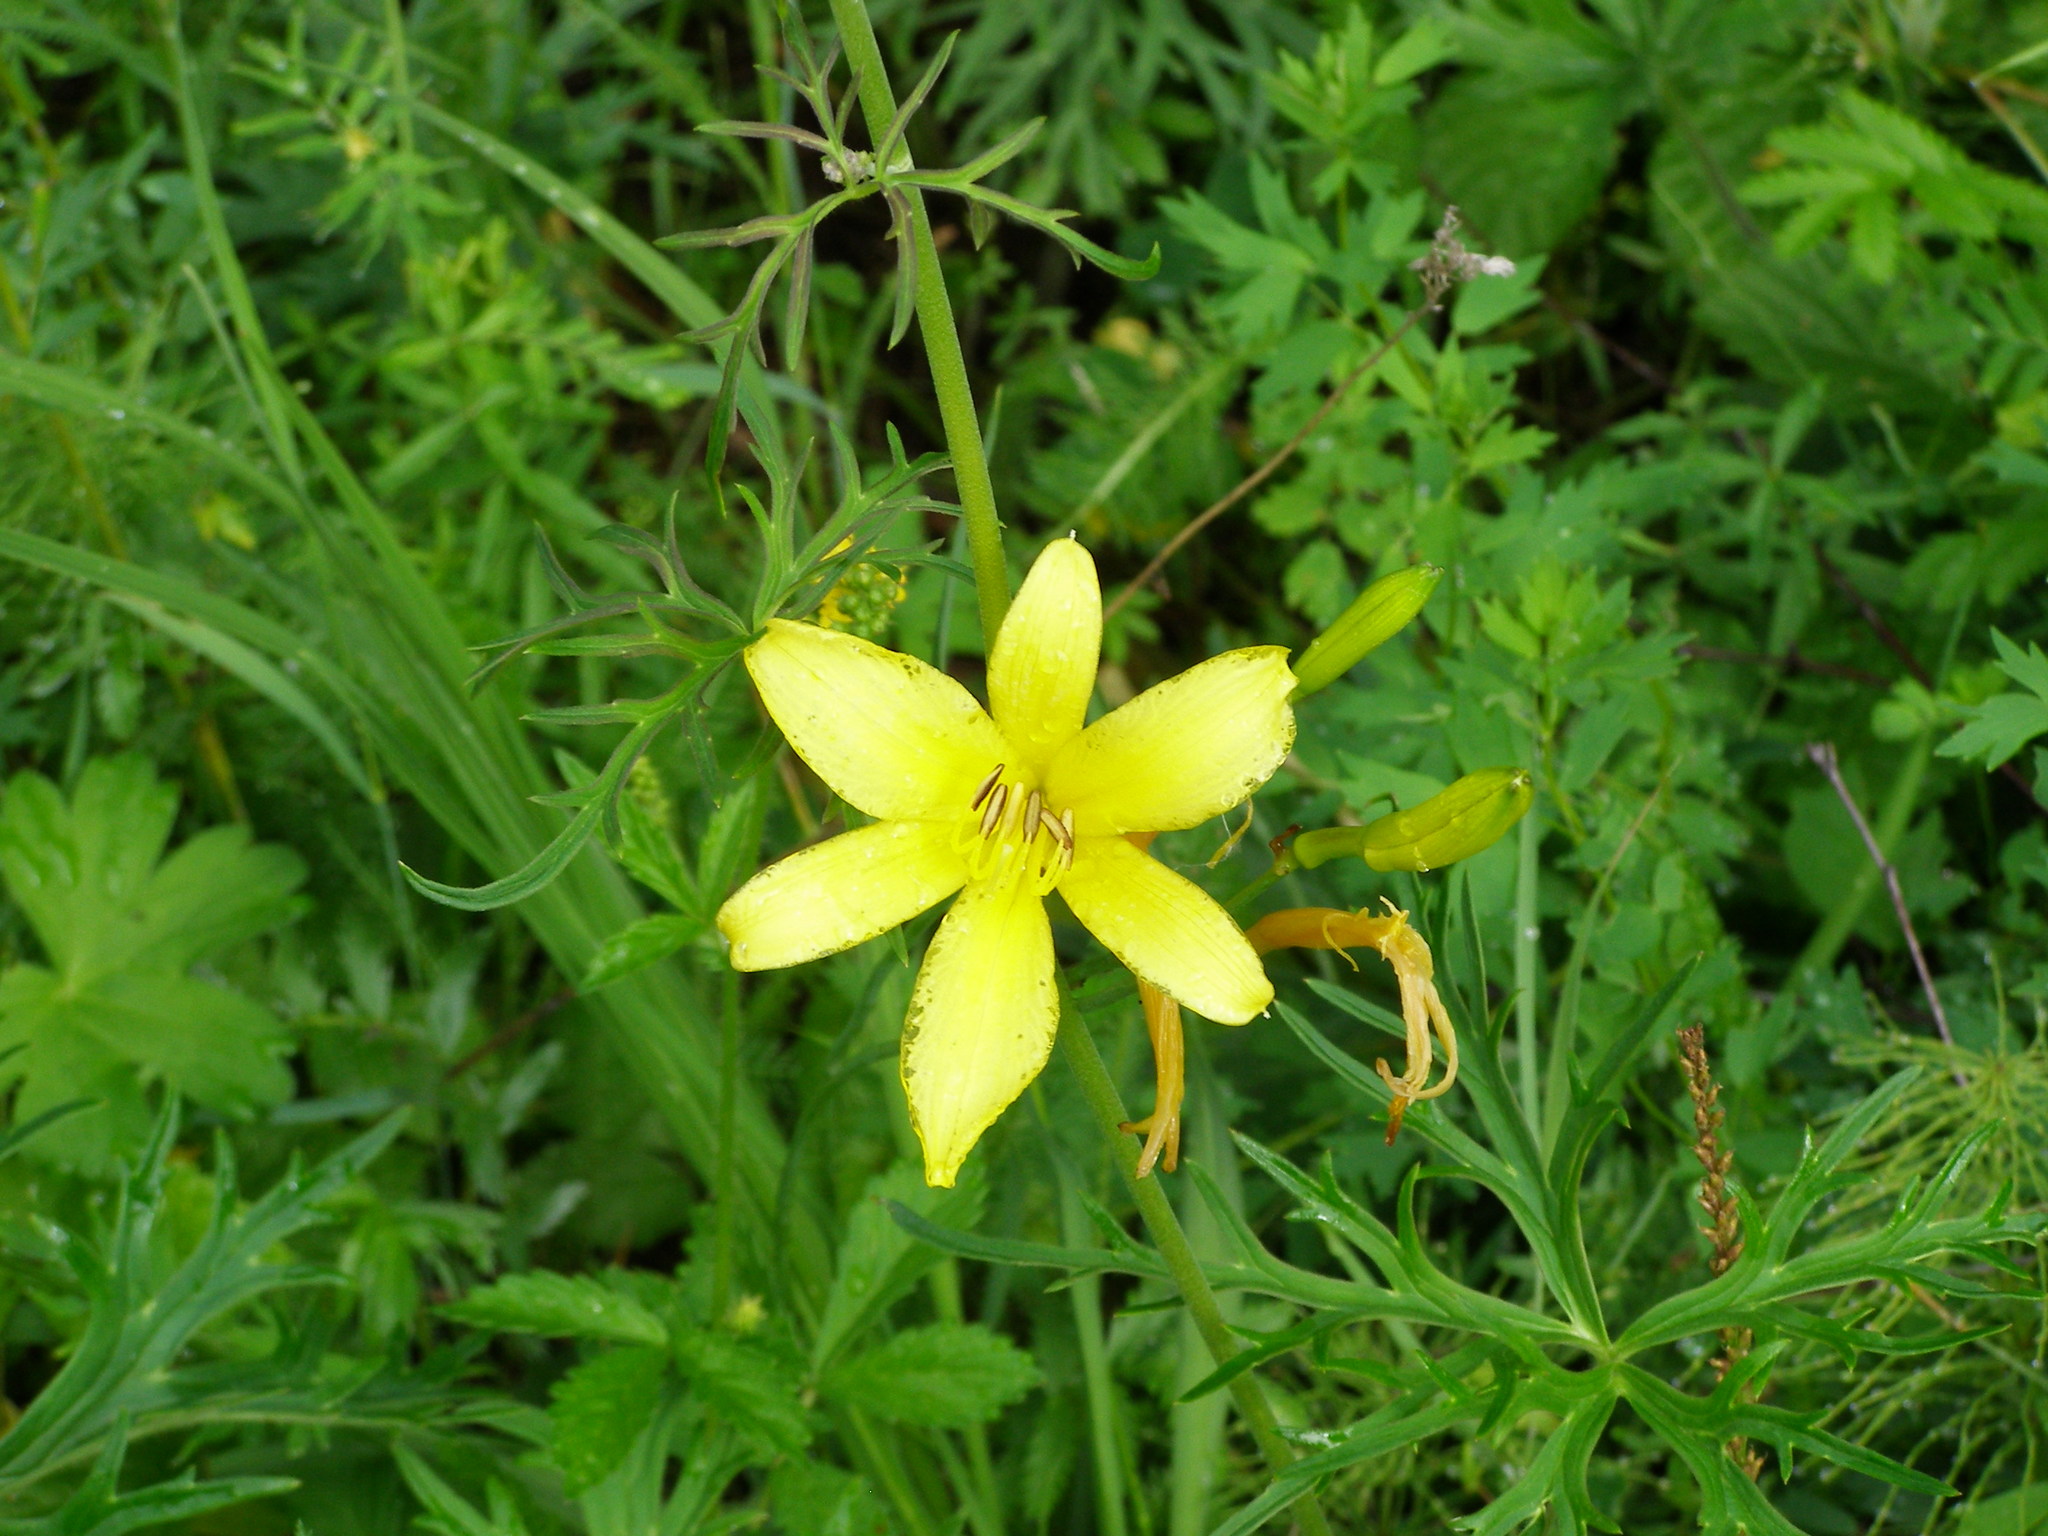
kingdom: Plantae
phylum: Tracheophyta
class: Liliopsida
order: Asparagales
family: Asphodelaceae
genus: Hemerocallis
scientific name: Hemerocallis minor
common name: Small daylily
